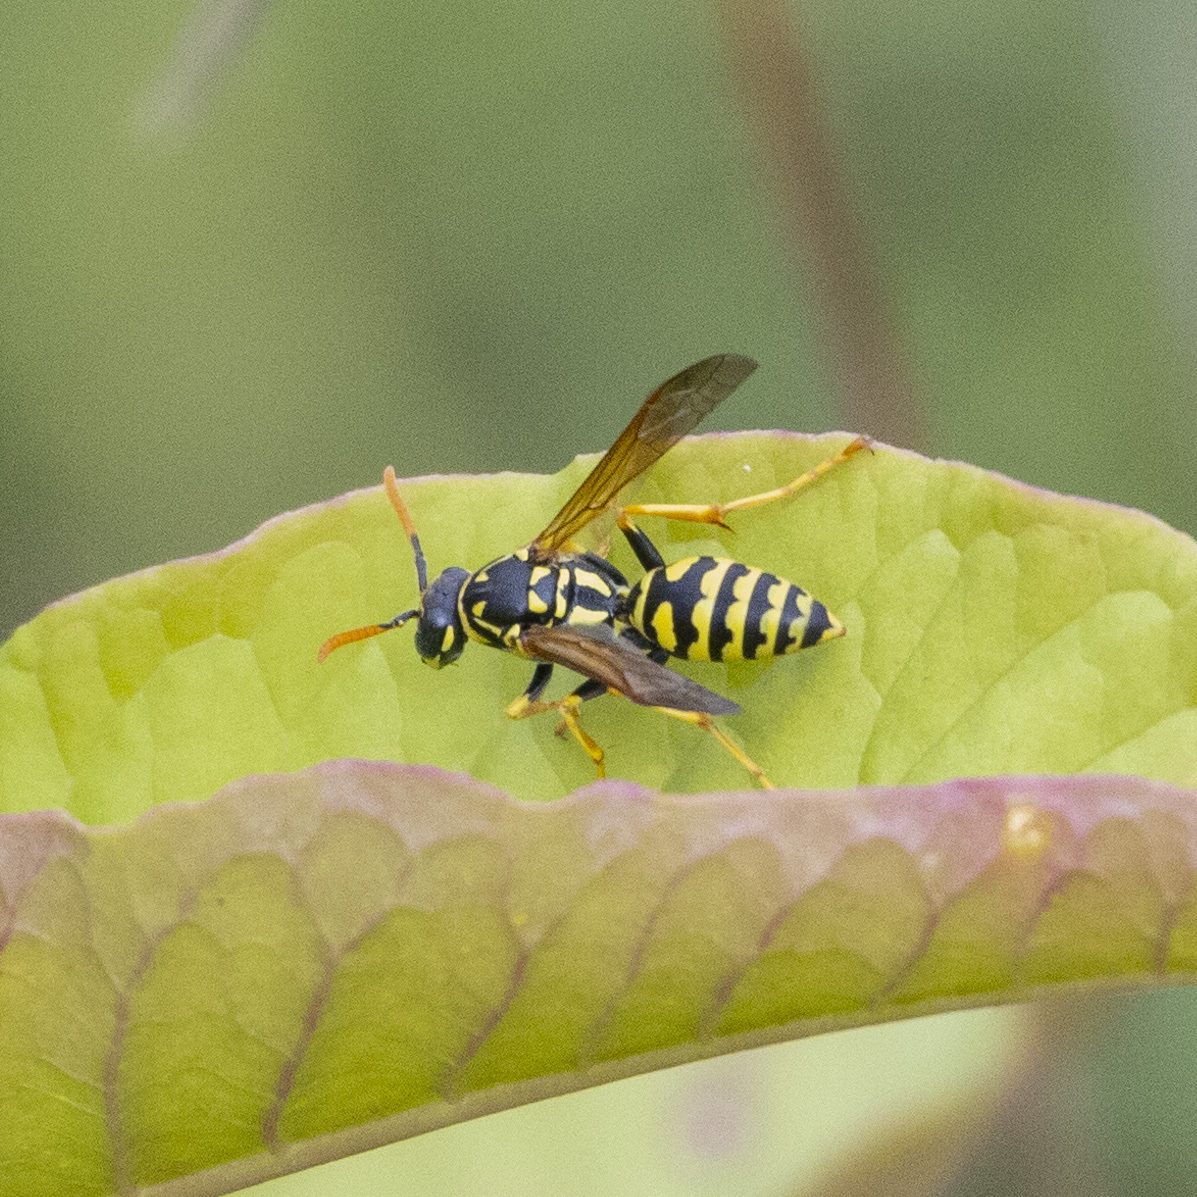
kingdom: Animalia
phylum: Arthropoda
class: Insecta
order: Hymenoptera
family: Eumenidae
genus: Polistes
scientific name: Polistes dominula
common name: Paper wasp
